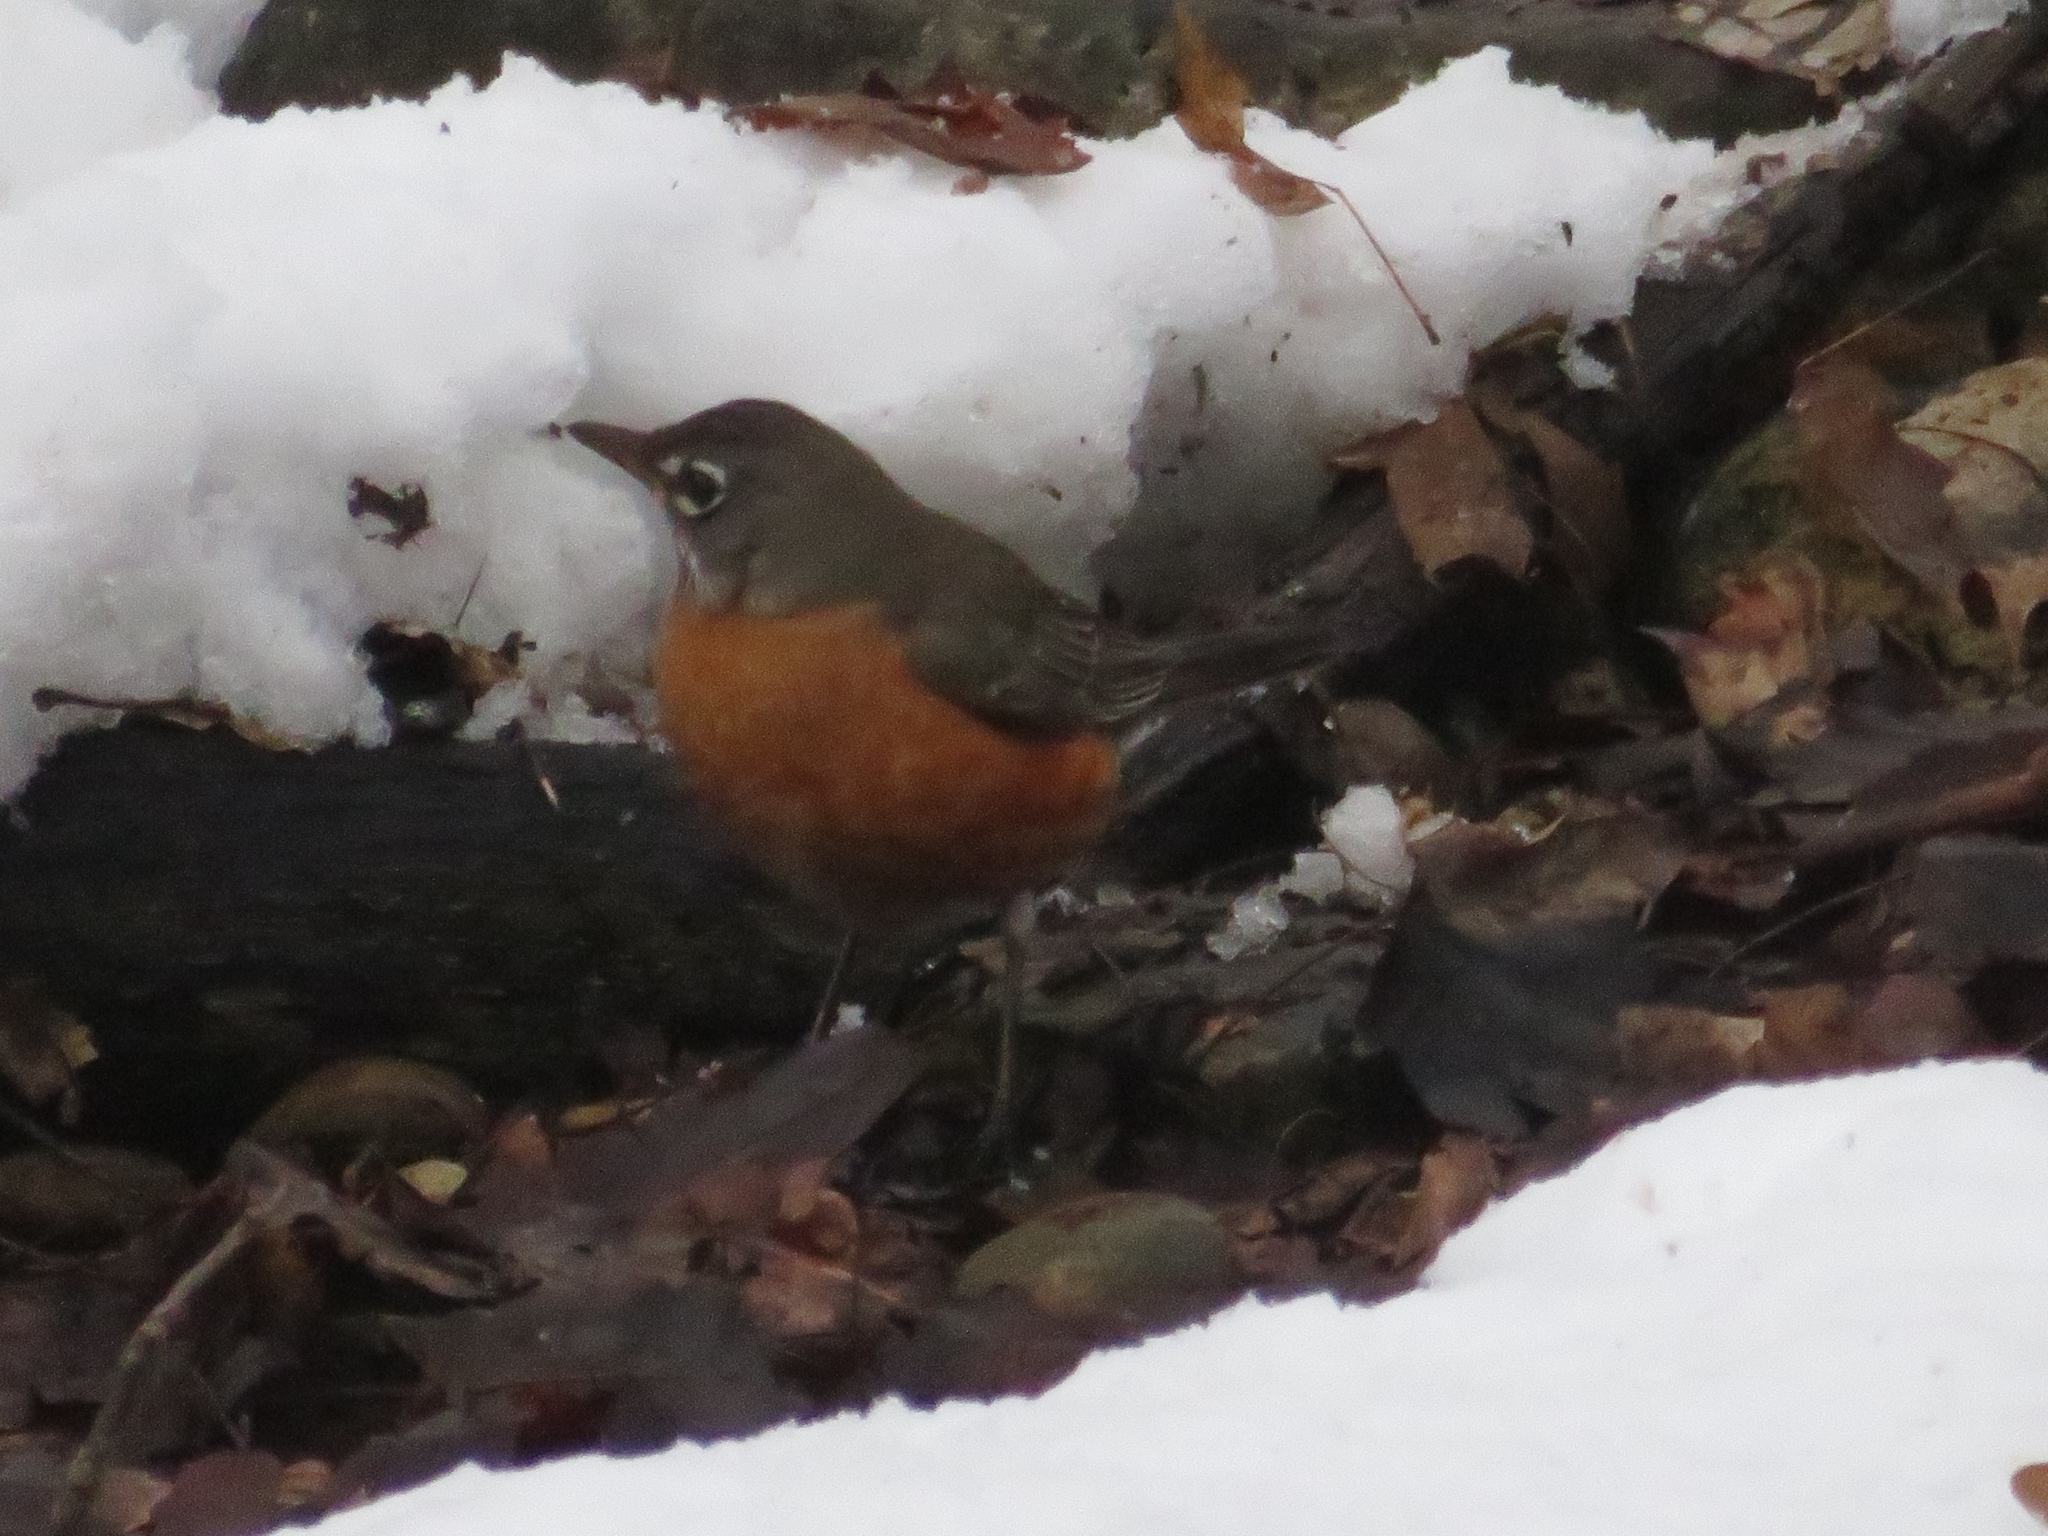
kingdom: Animalia
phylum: Chordata
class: Aves
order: Passeriformes
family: Turdidae
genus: Turdus
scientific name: Turdus migratorius
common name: American robin
